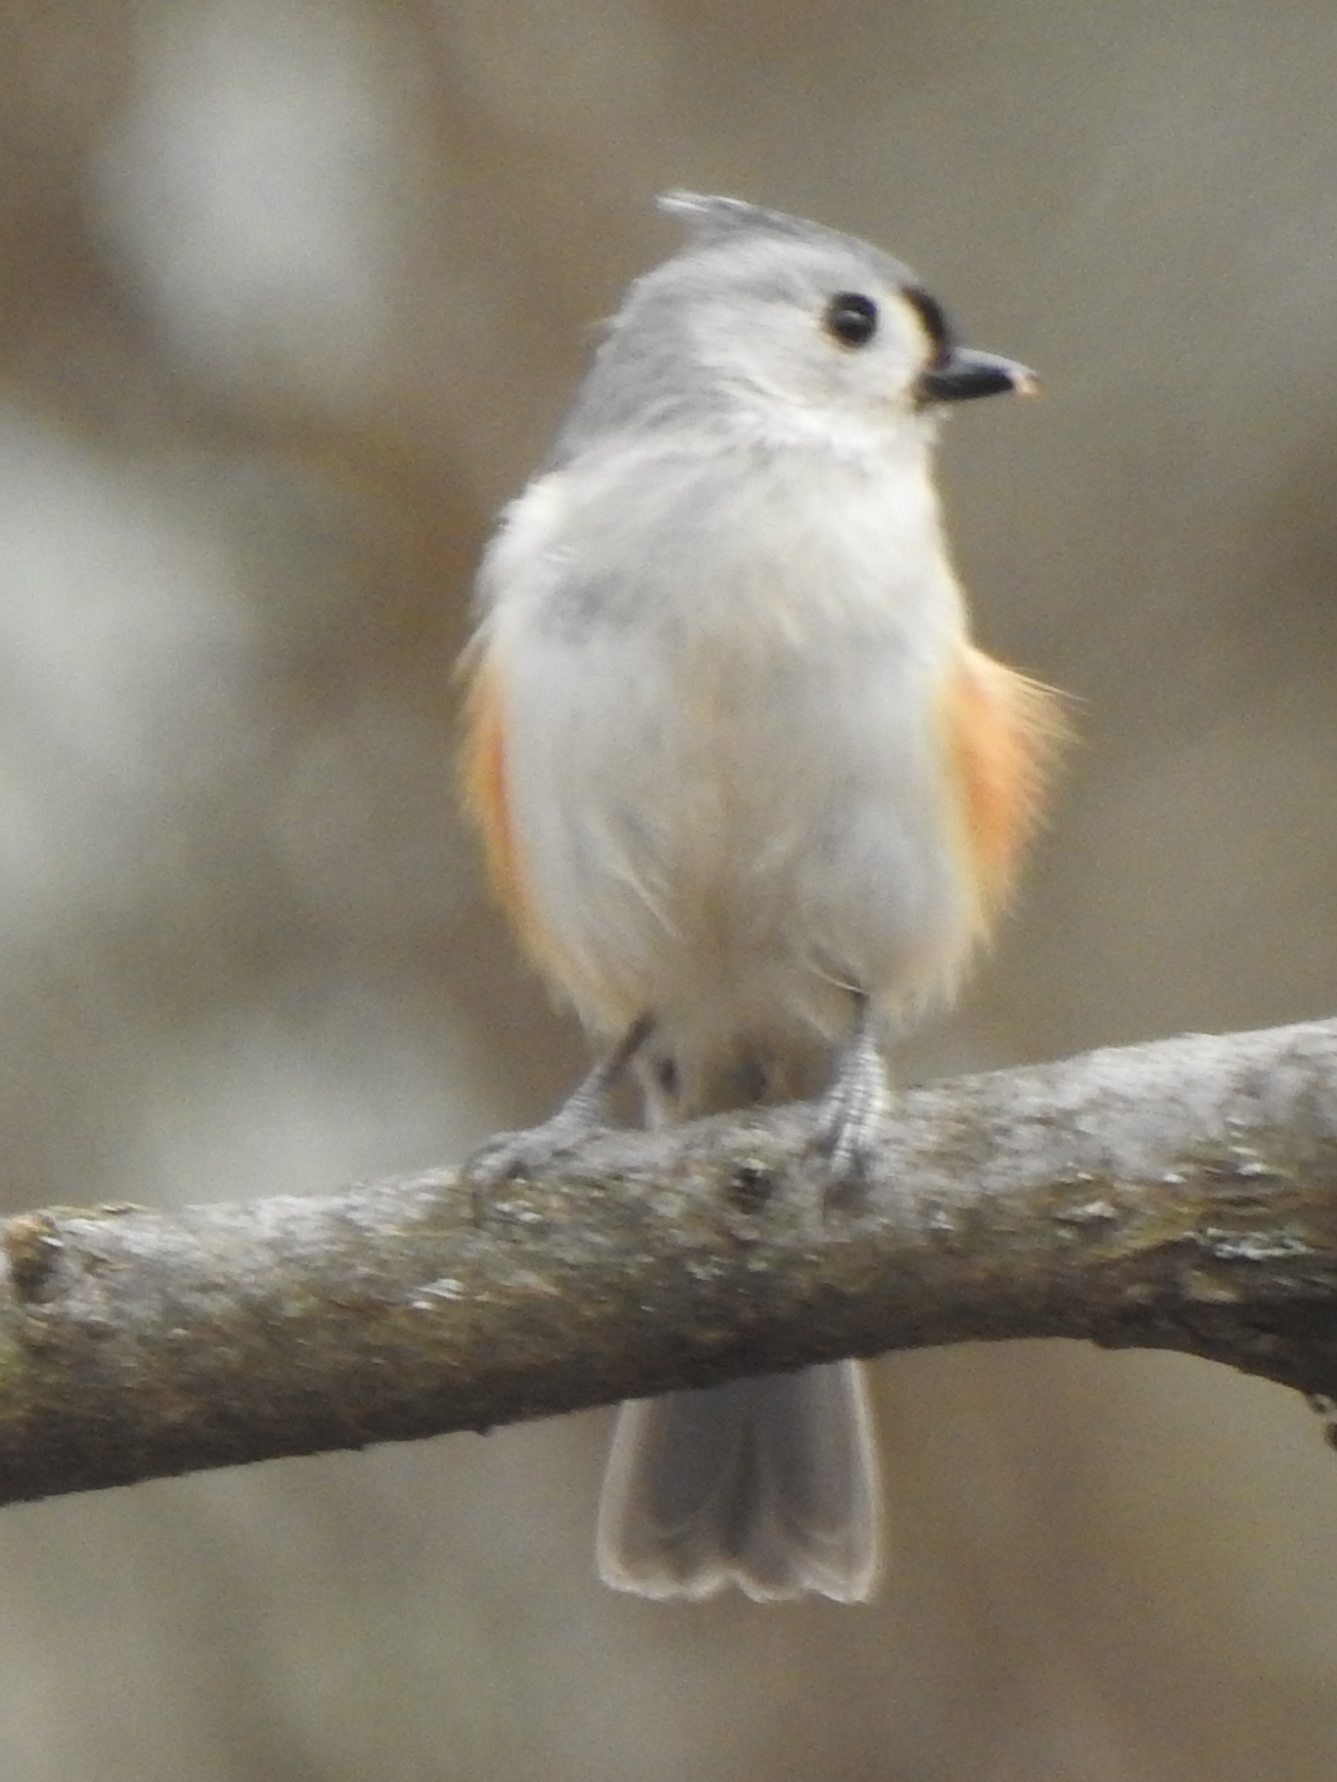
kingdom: Animalia
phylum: Chordata
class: Aves
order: Passeriformes
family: Paridae
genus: Baeolophus
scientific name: Baeolophus bicolor
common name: Tufted titmouse
